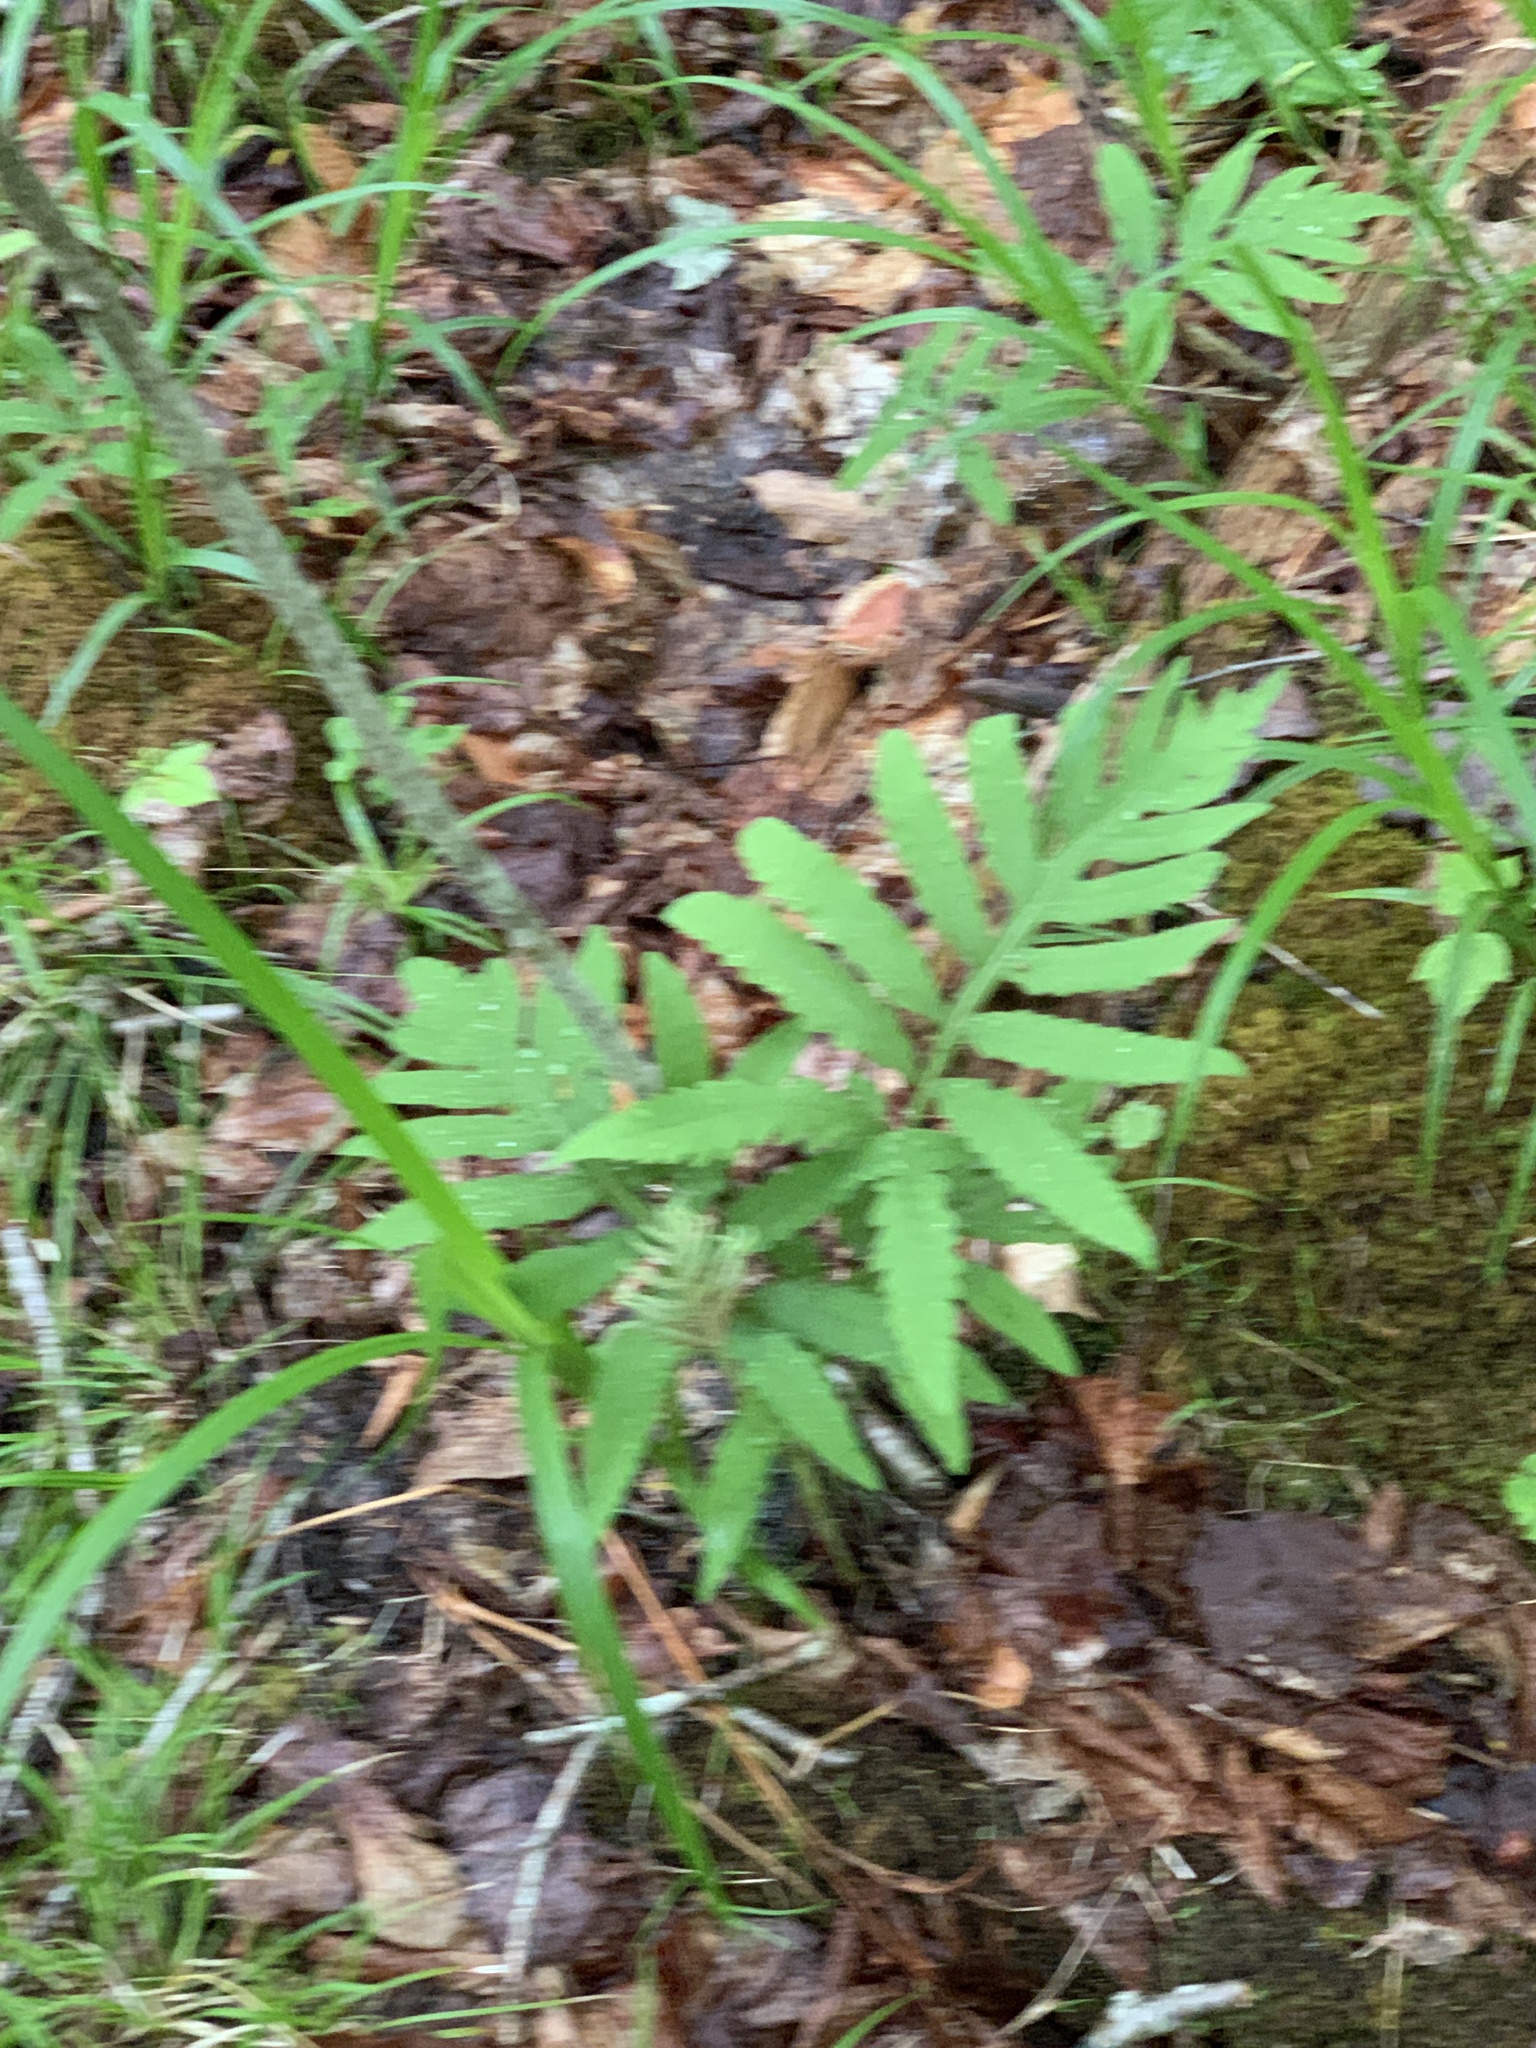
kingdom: Plantae
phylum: Tracheophyta
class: Polypodiopsida
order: Polypodiales
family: Onocleaceae
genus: Onoclea
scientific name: Onoclea sensibilis
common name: Sensitive fern
